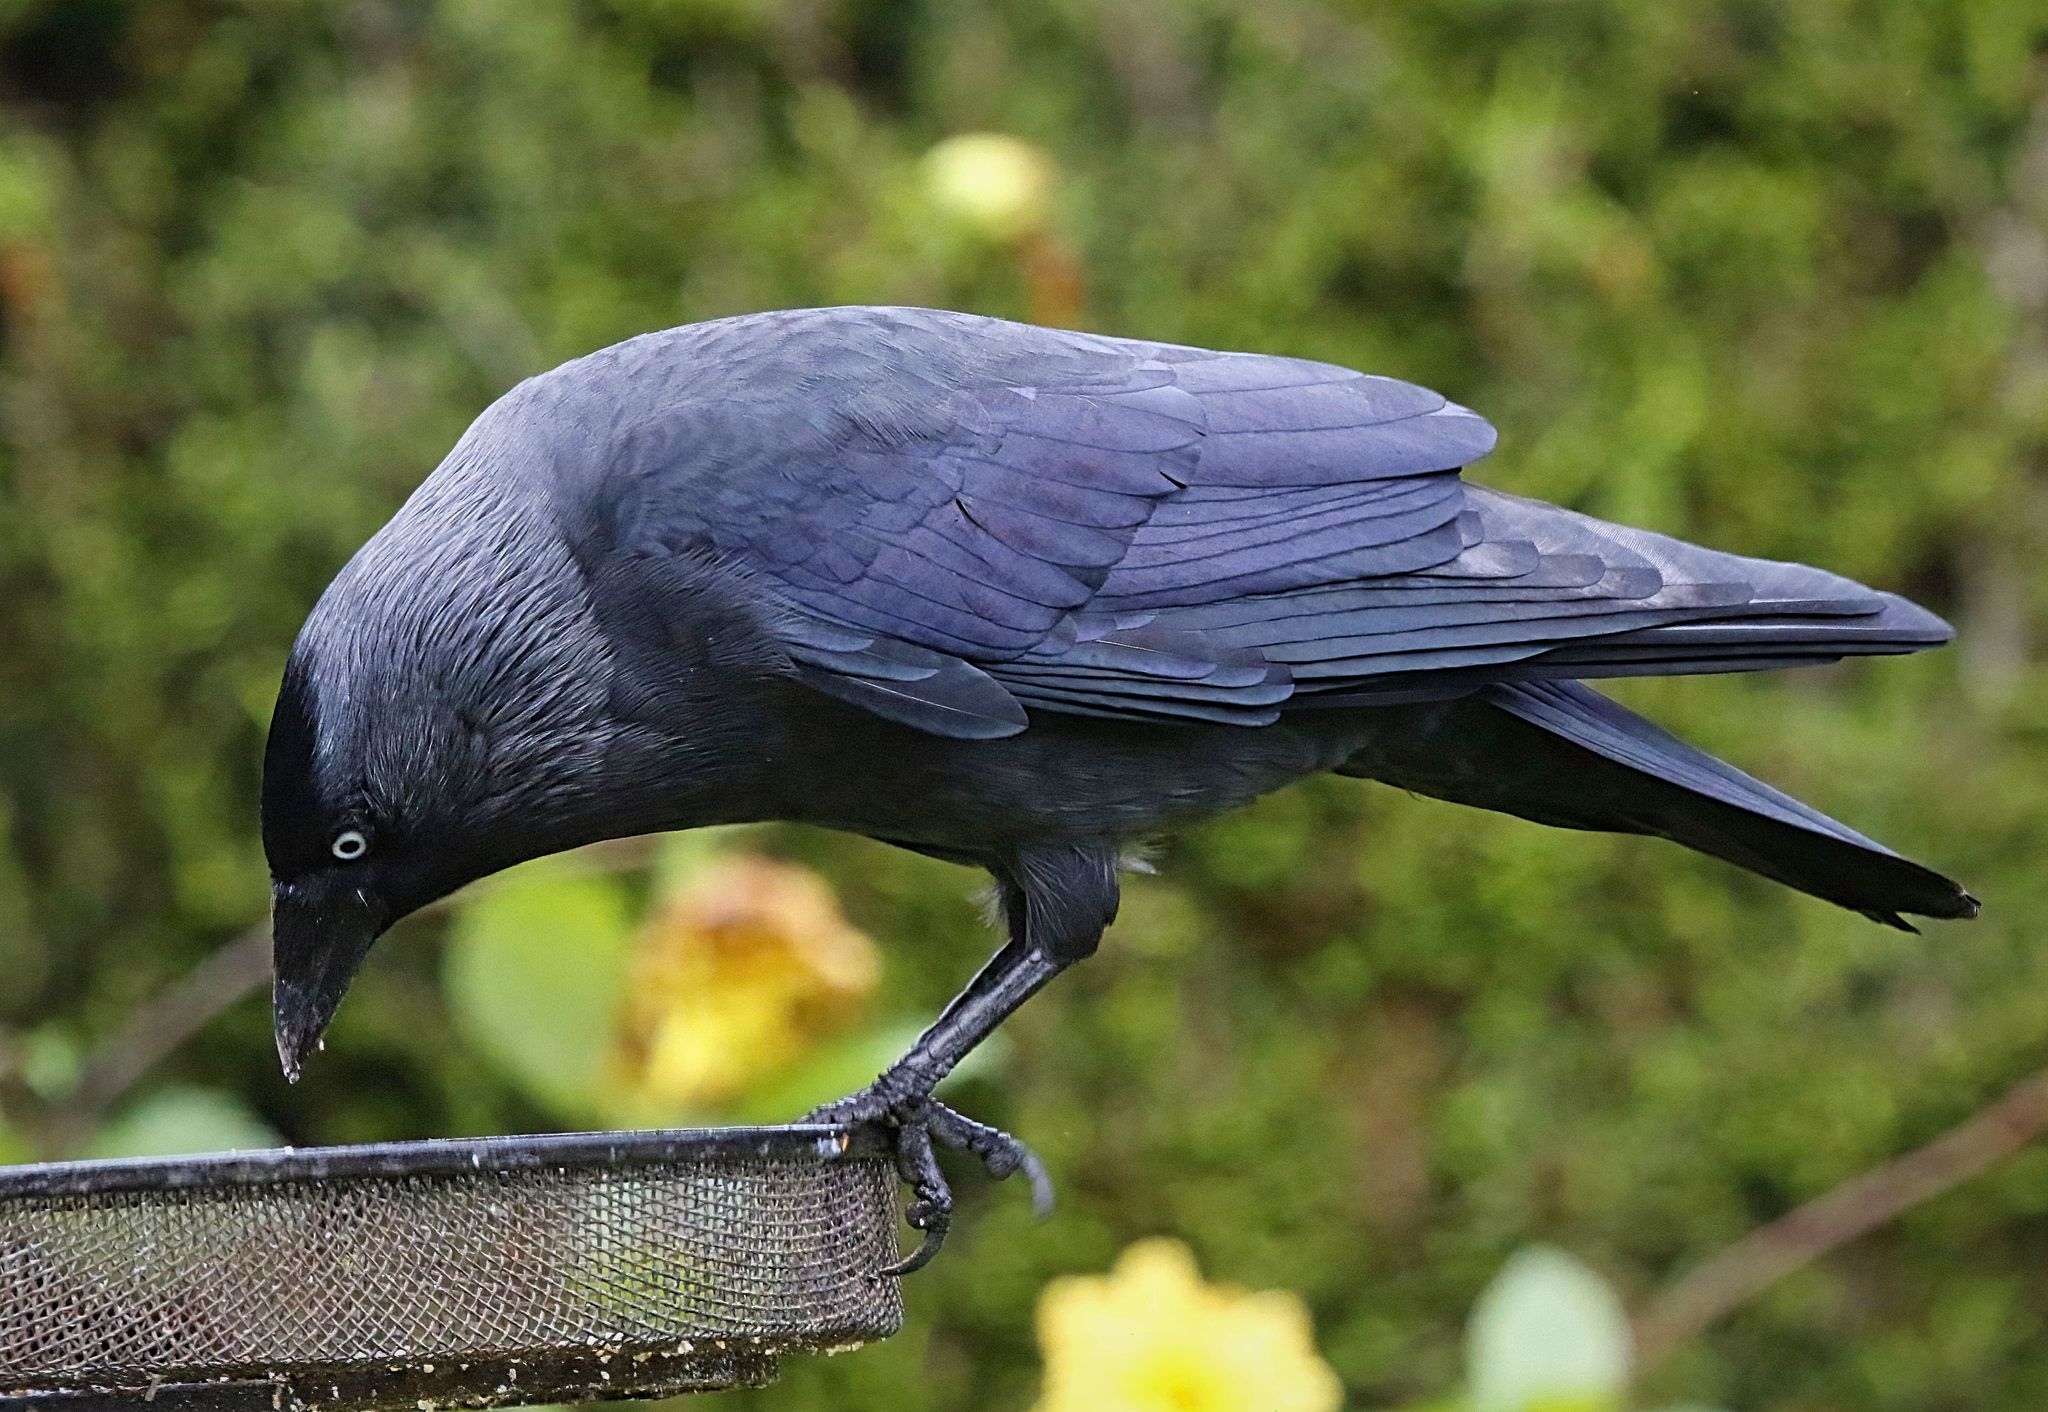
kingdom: Animalia
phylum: Chordata
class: Aves
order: Passeriformes
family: Corvidae
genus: Coloeus
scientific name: Coloeus monedula
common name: Western jackdaw
